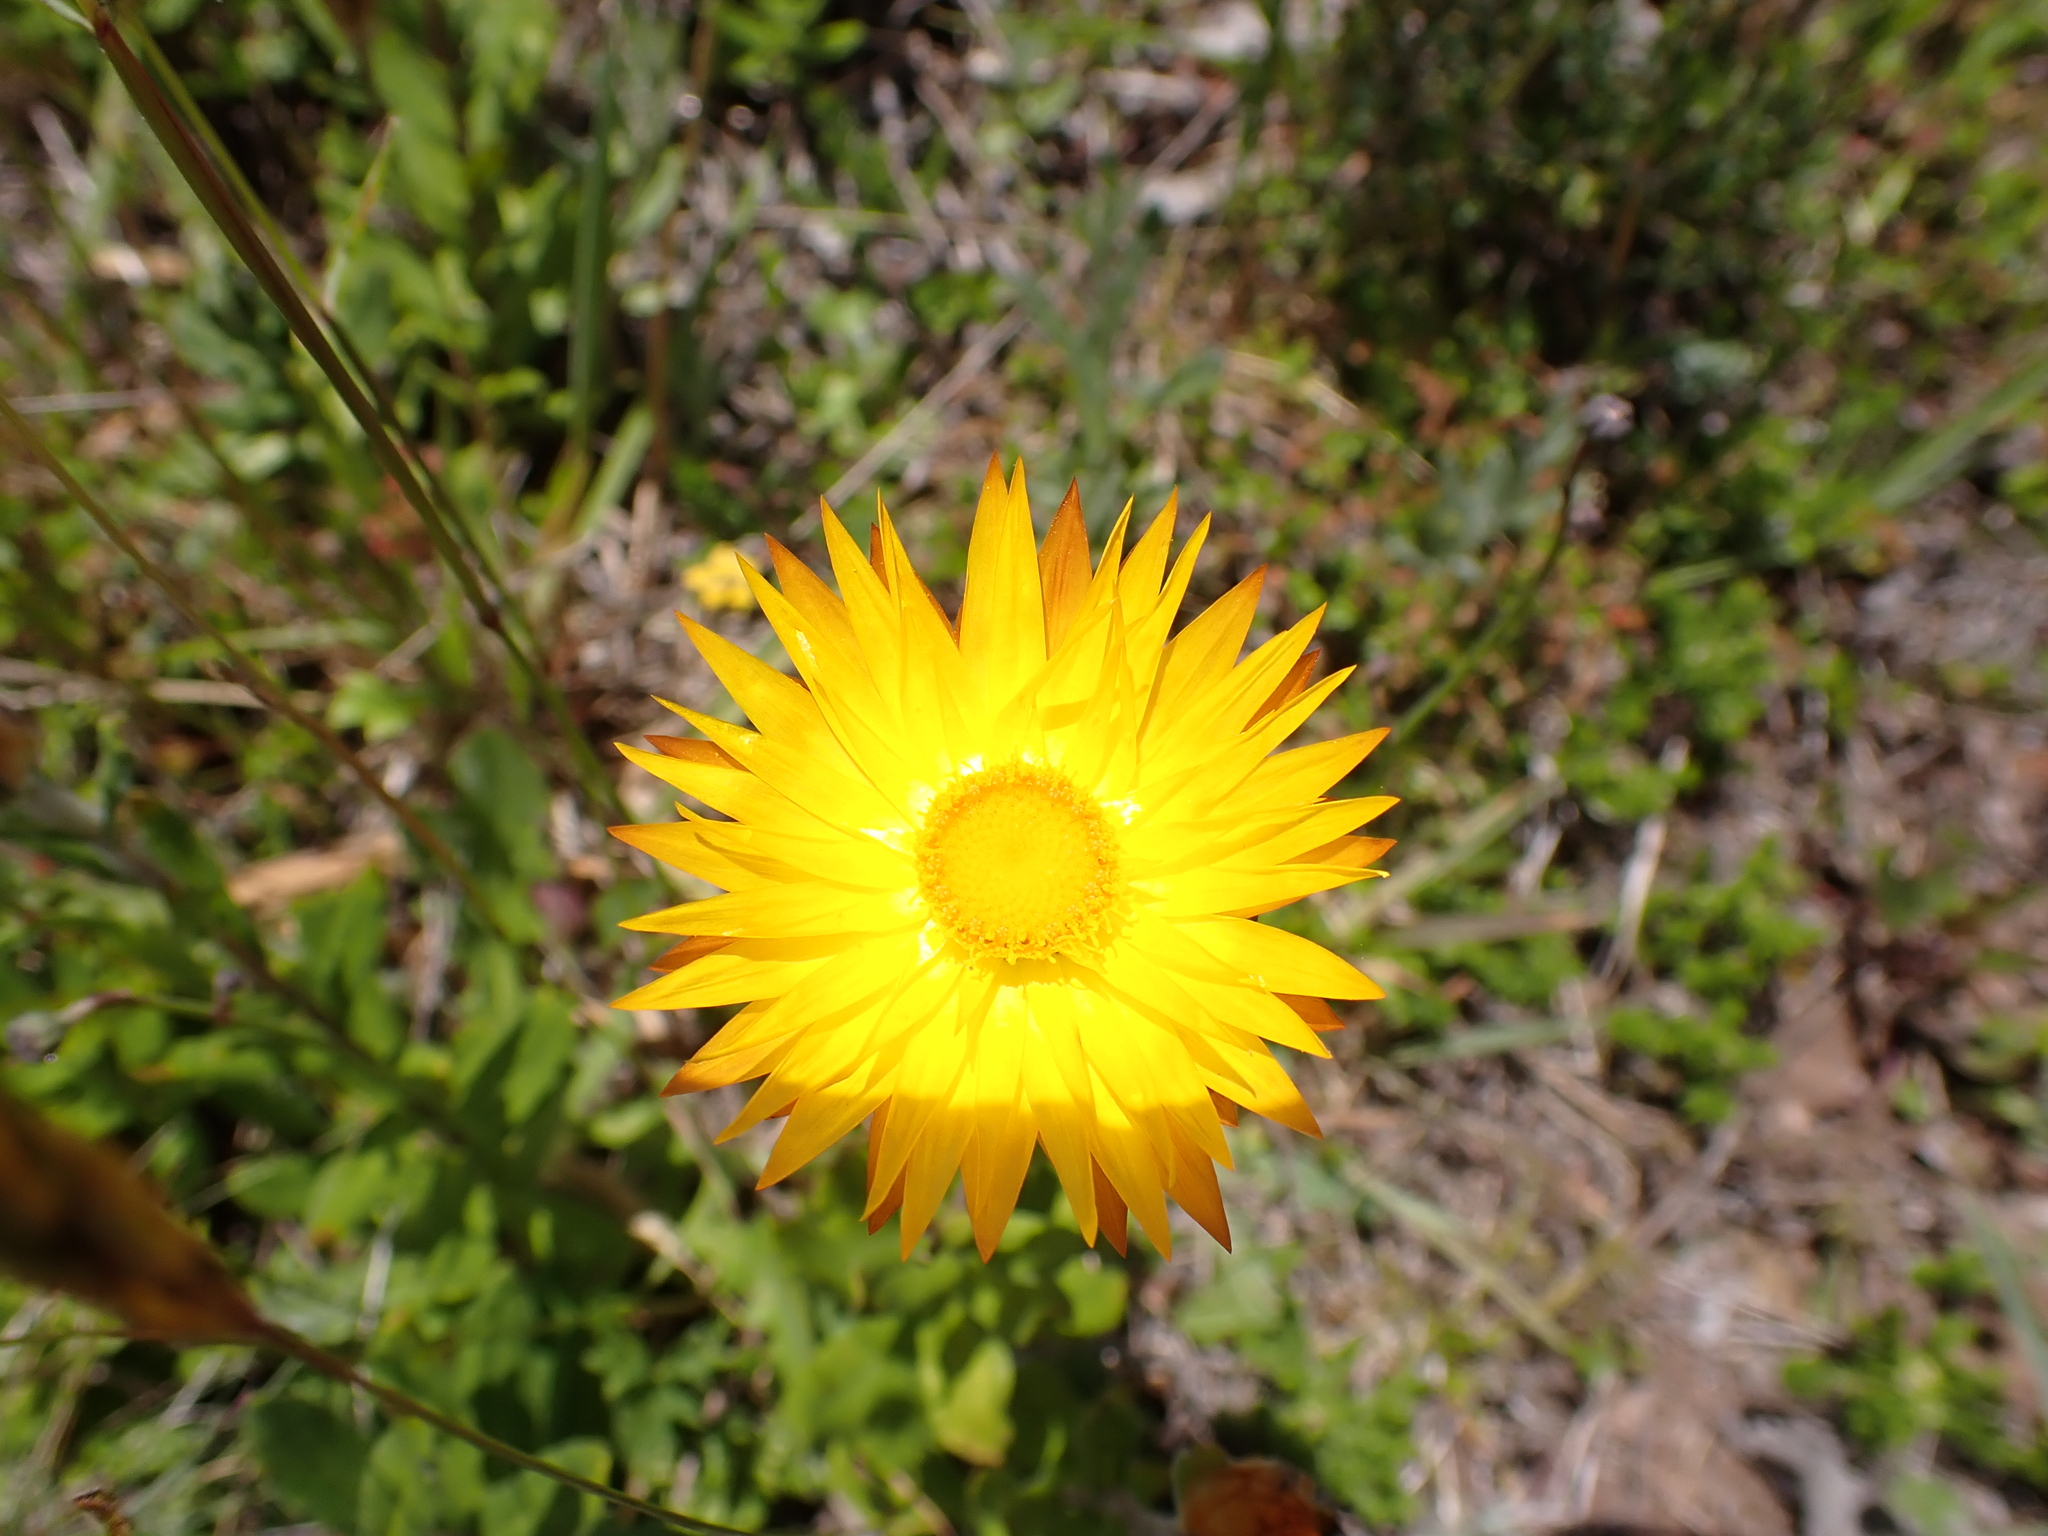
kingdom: Plantae
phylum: Tracheophyta
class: Magnoliopsida
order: Asterales
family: Asteraceae
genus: Xerochrysum
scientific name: Xerochrysum subundulatum
